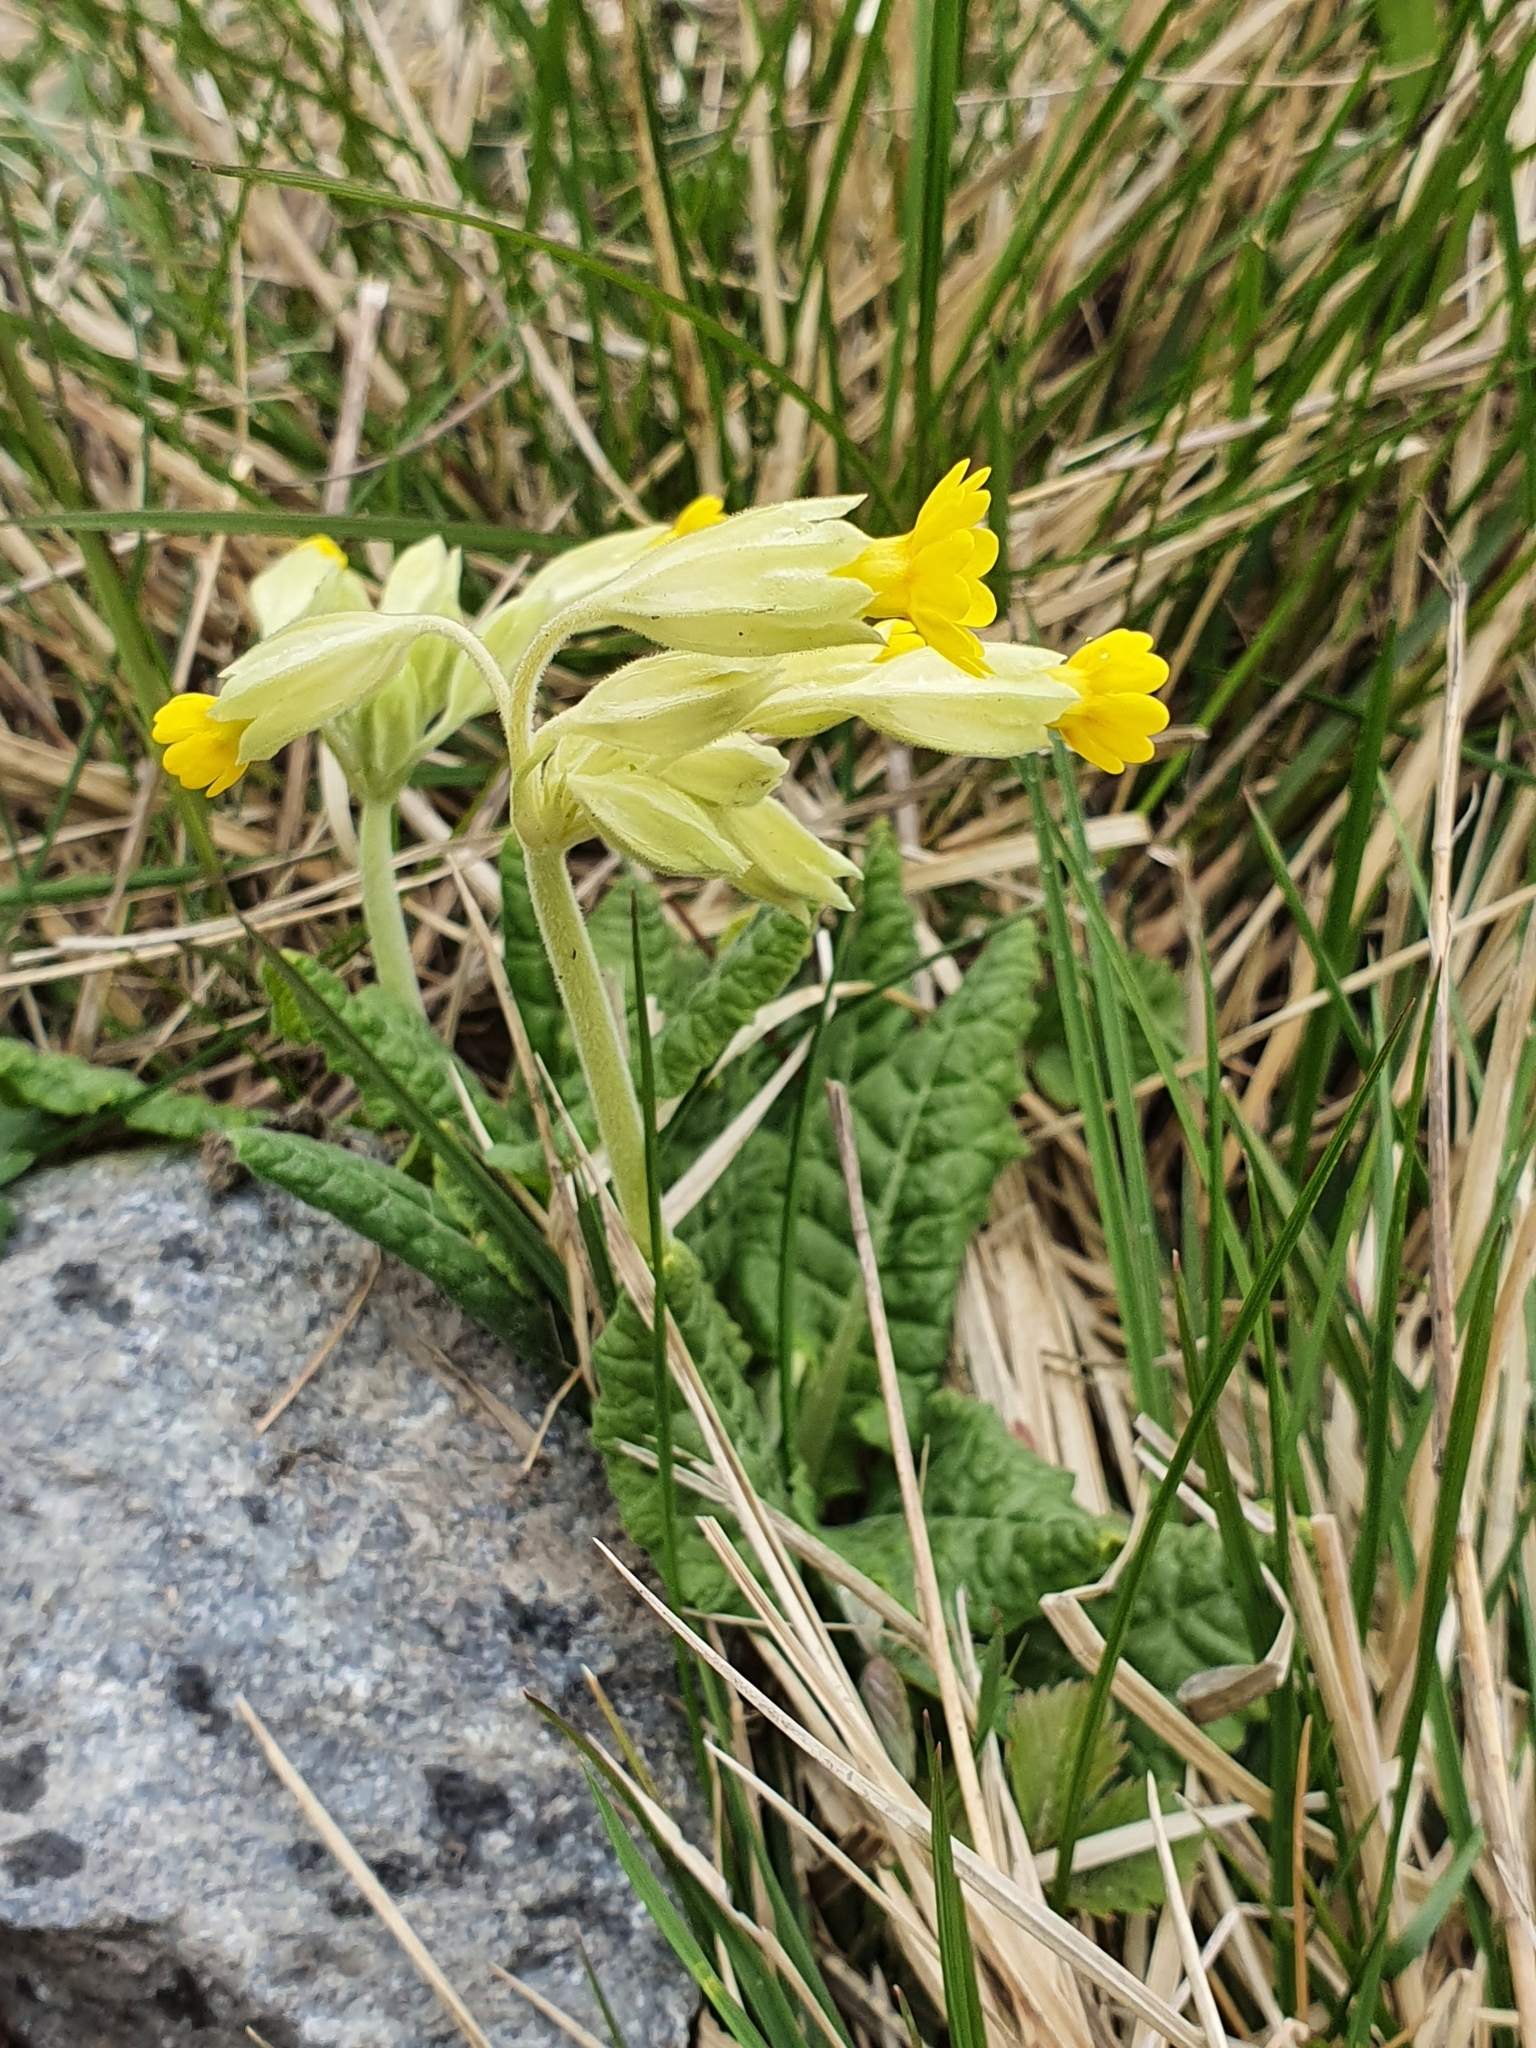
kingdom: Plantae
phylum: Tracheophyta
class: Magnoliopsida
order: Ericales
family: Primulaceae
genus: Primula
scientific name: Primula veris
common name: Cowslip
